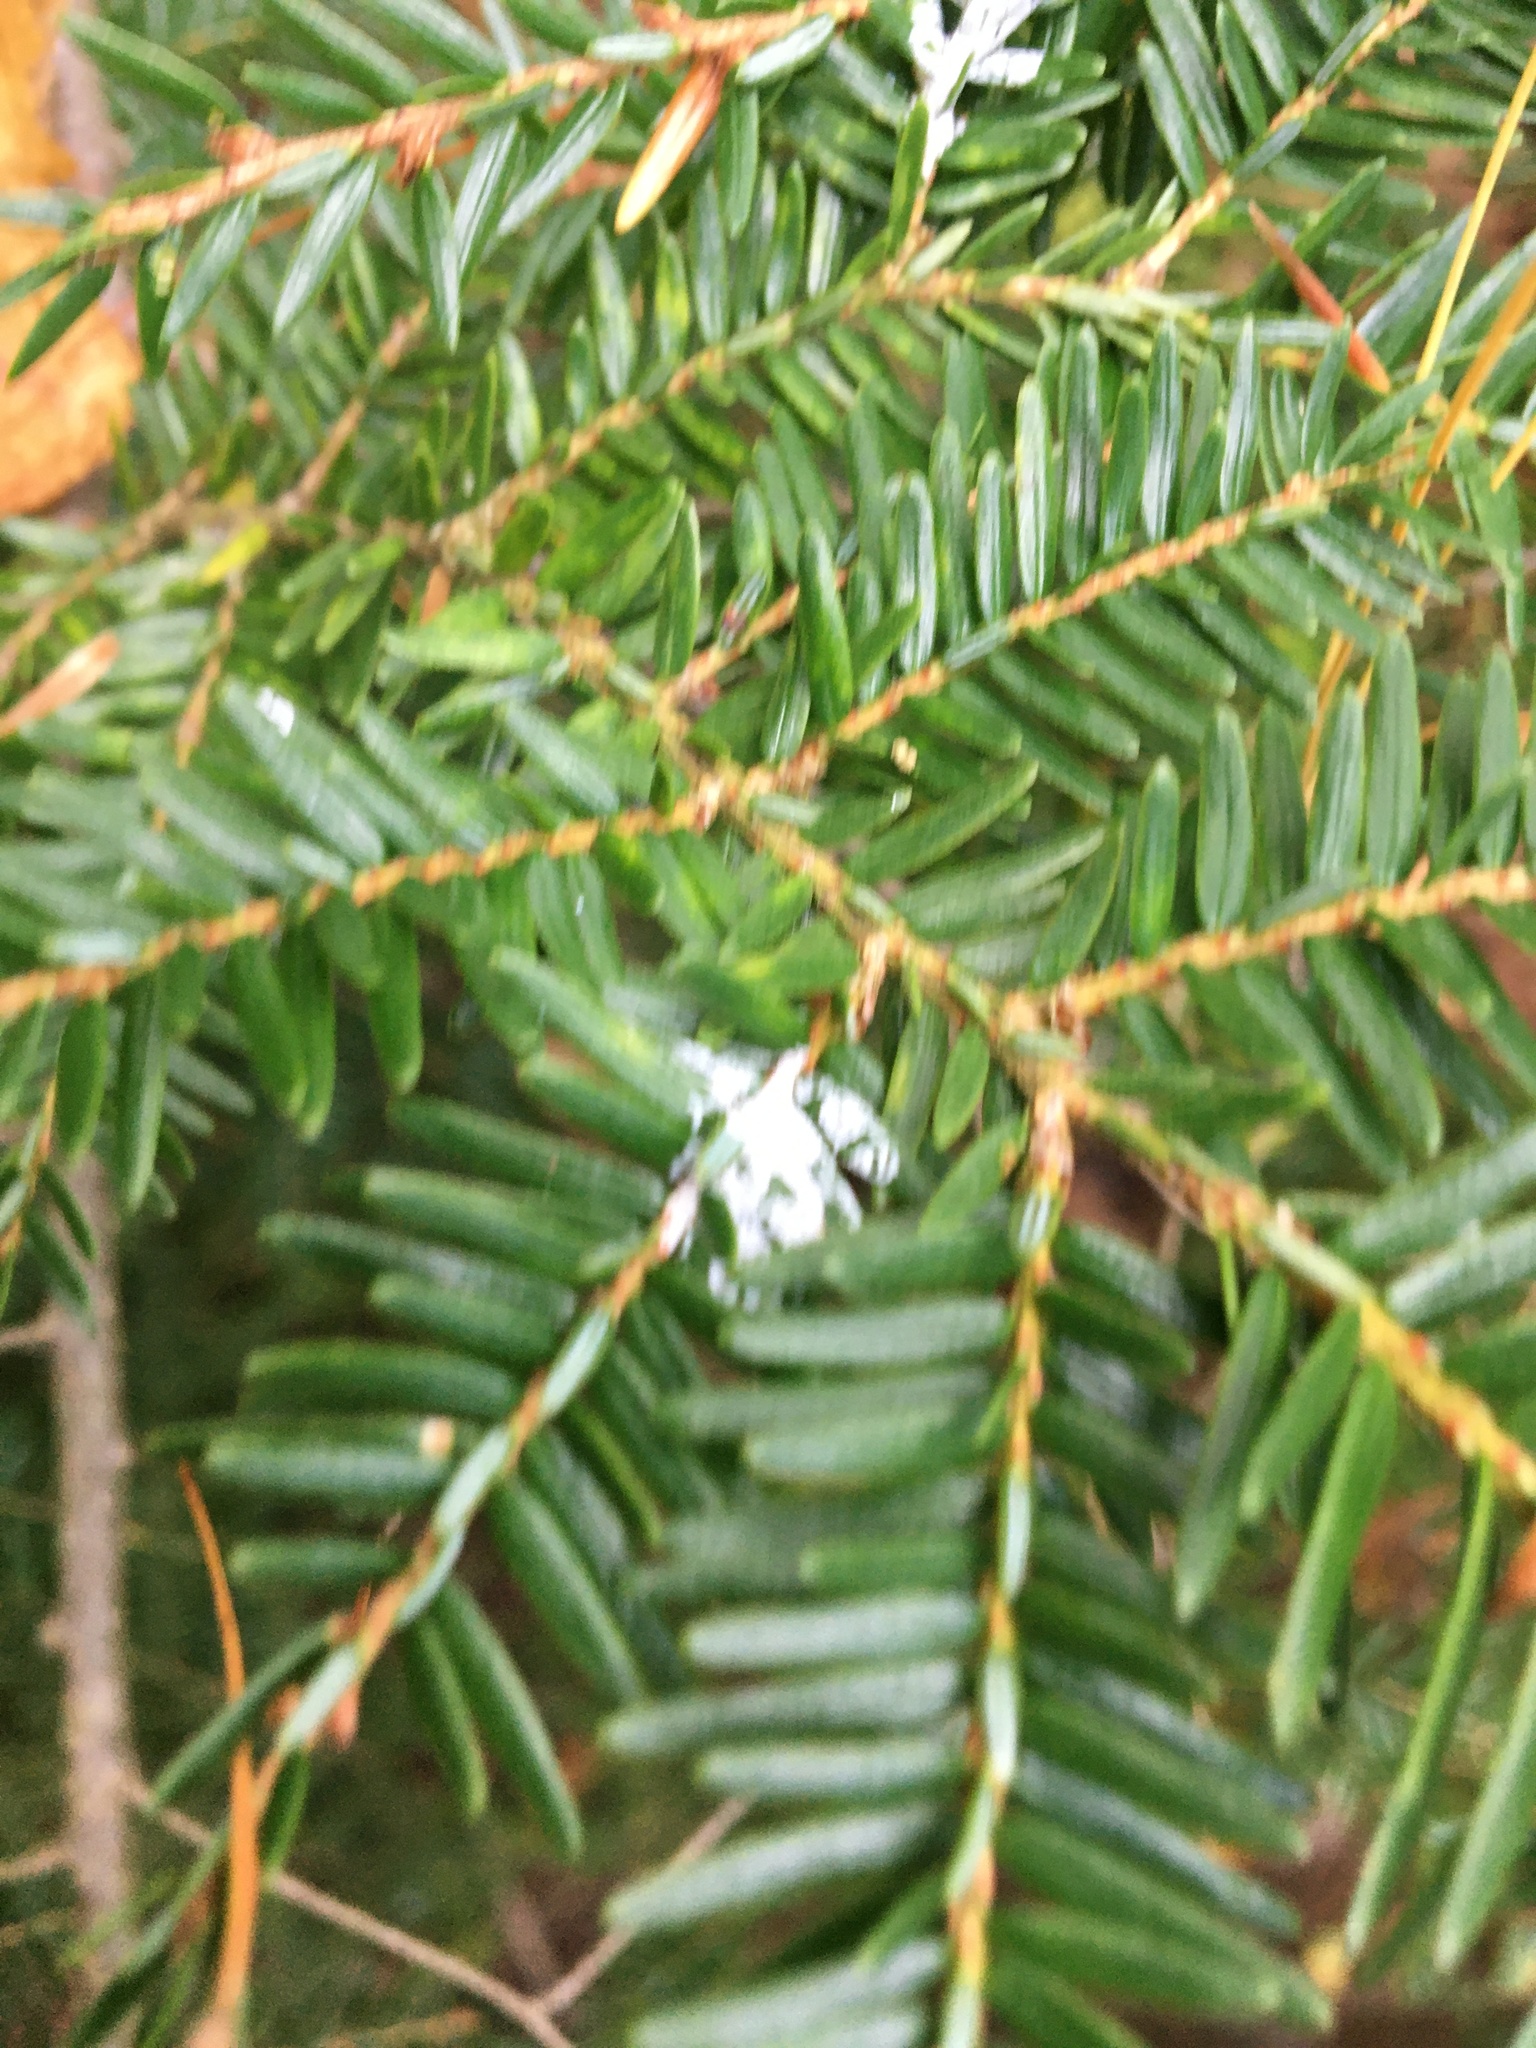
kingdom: Animalia
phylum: Arthropoda
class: Insecta
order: Hemiptera
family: Adelgidae
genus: Adelges
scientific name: Adelges tsugae
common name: Hemlock woolly adelgid
